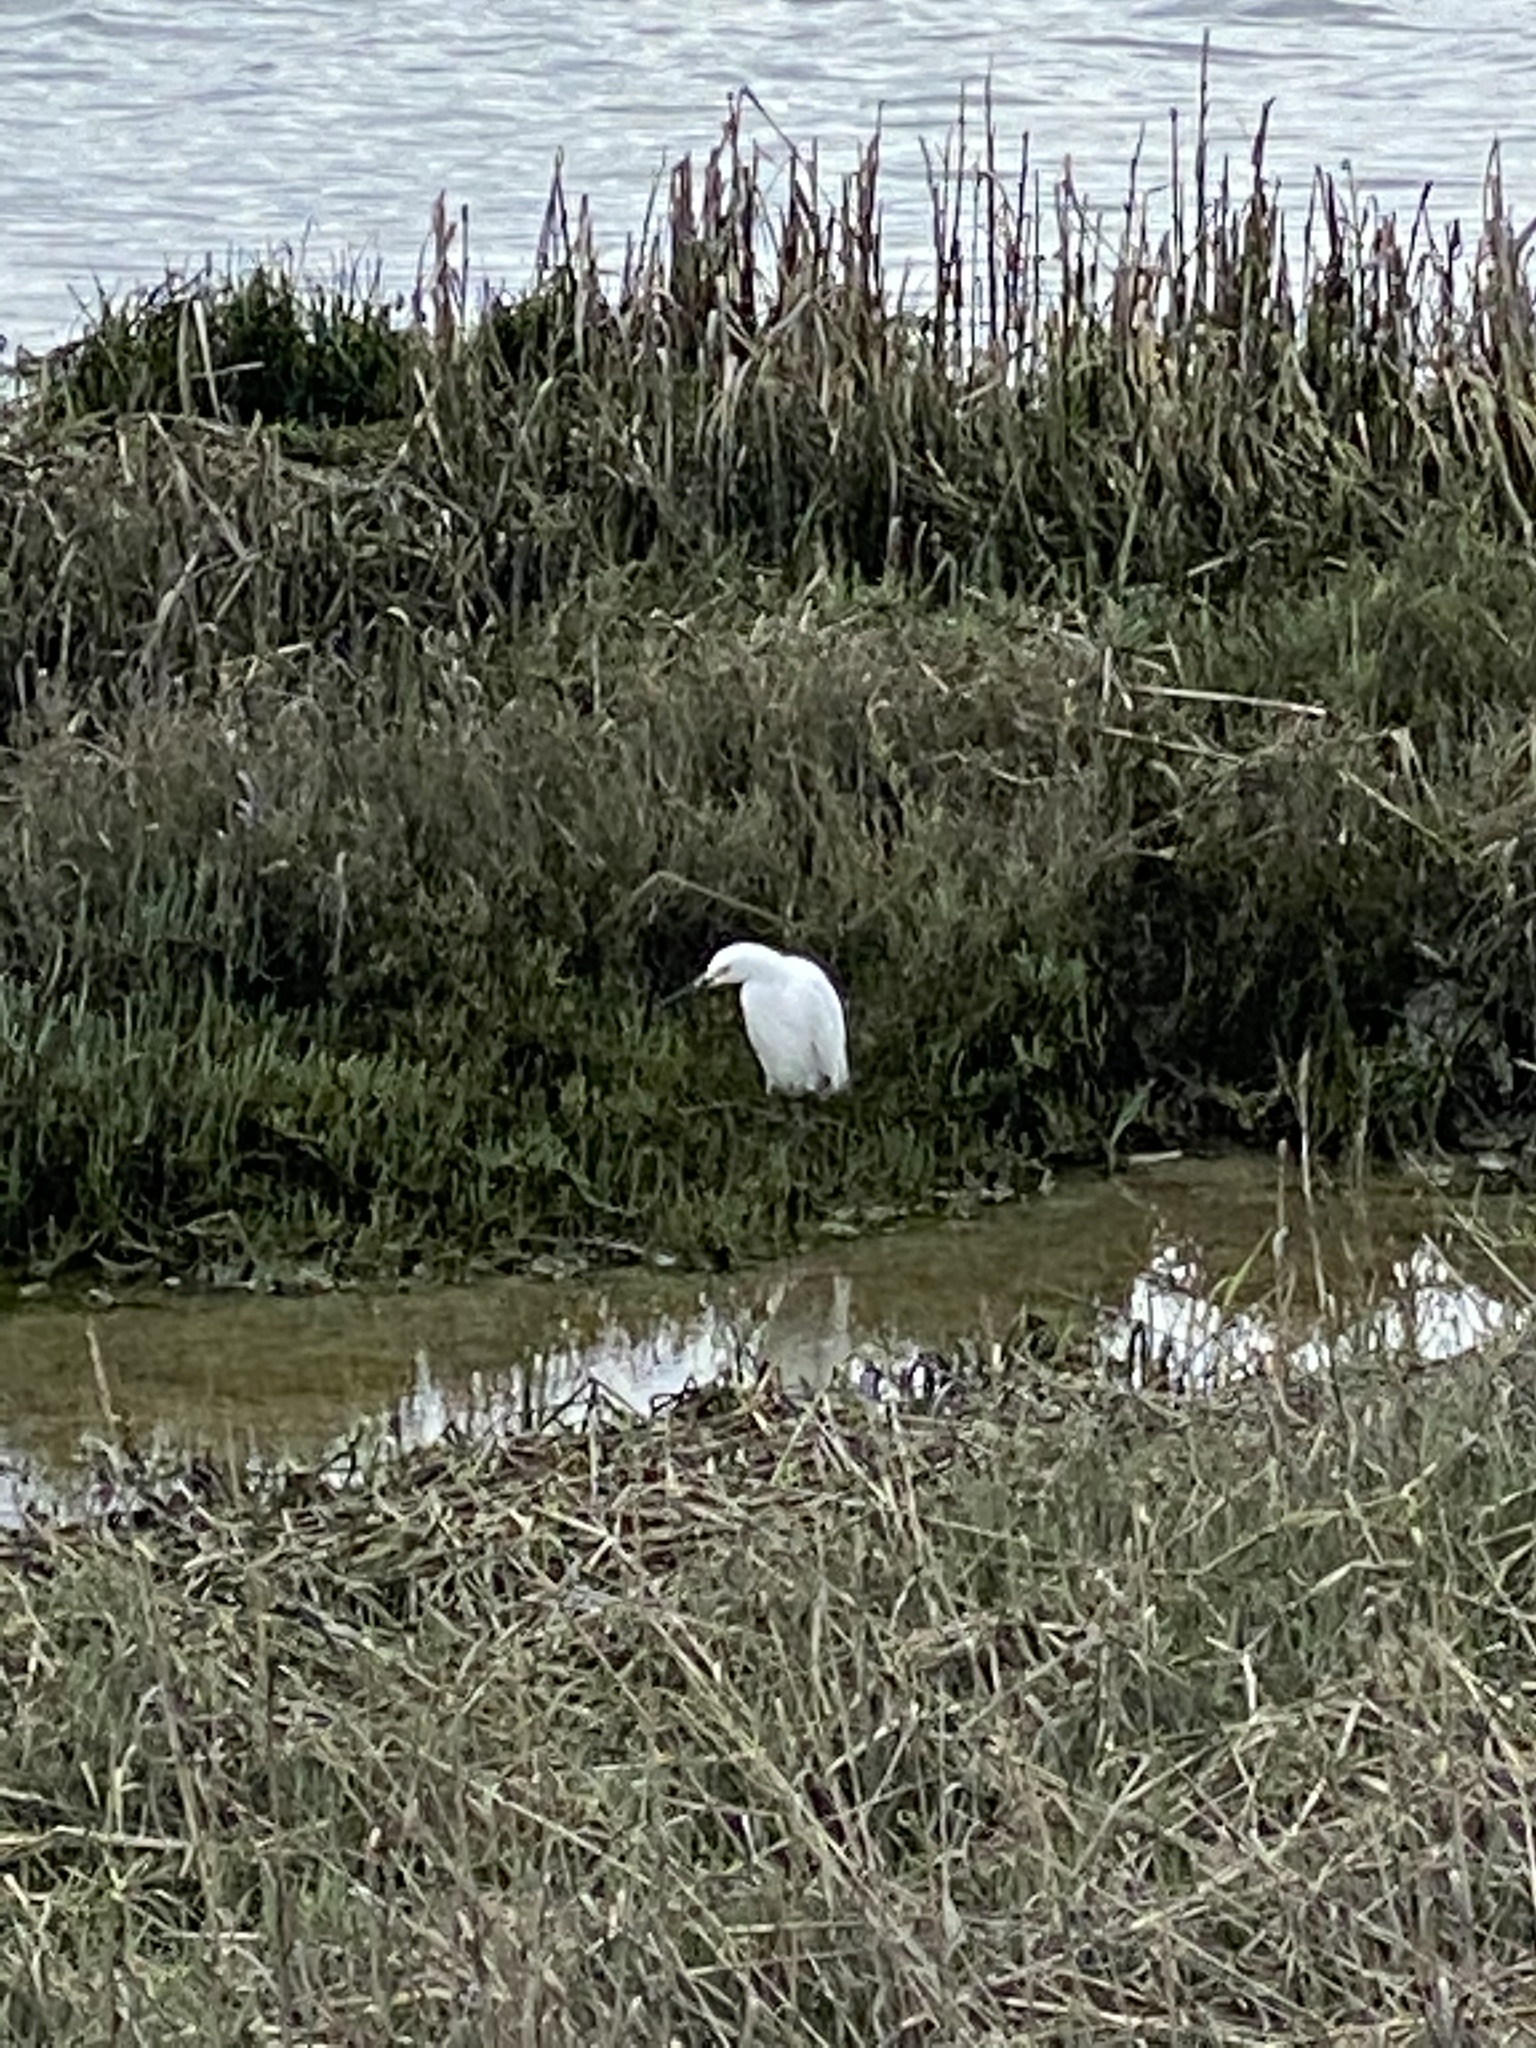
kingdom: Animalia
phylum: Chordata
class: Aves
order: Pelecaniformes
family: Ardeidae
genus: Egretta
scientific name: Egretta thula
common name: Snowy egret
